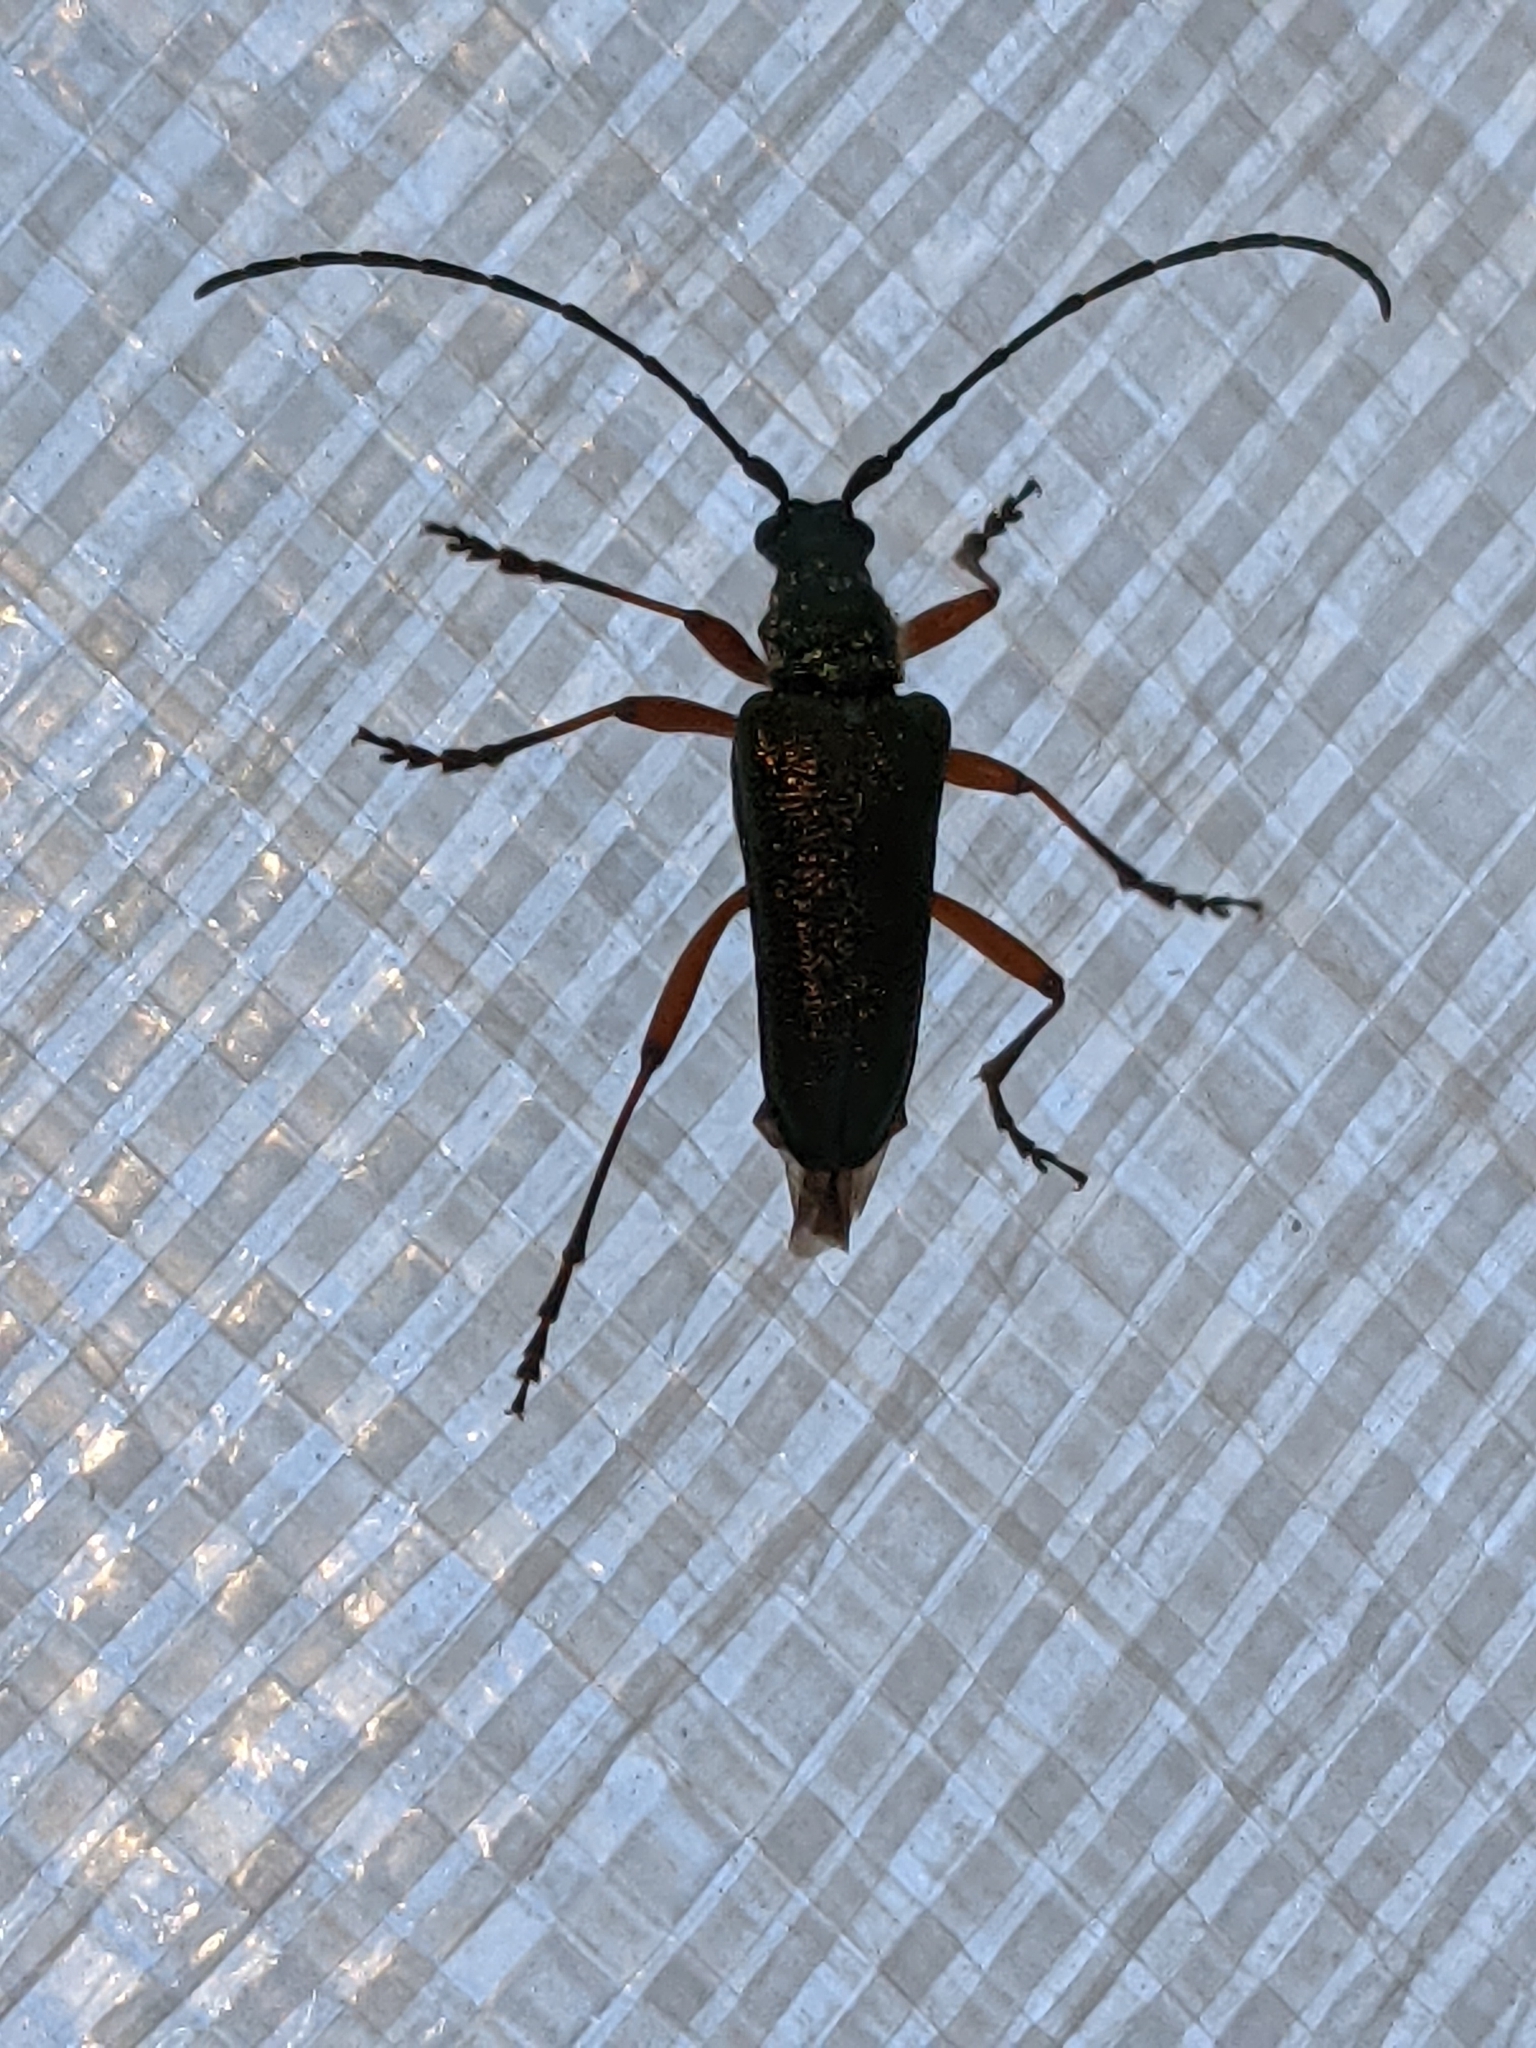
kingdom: Animalia
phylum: Arthropoda
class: Insecta
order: Coleoptera
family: Cerambycidae
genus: Anthophylax
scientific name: Anthophylax cyaneus
